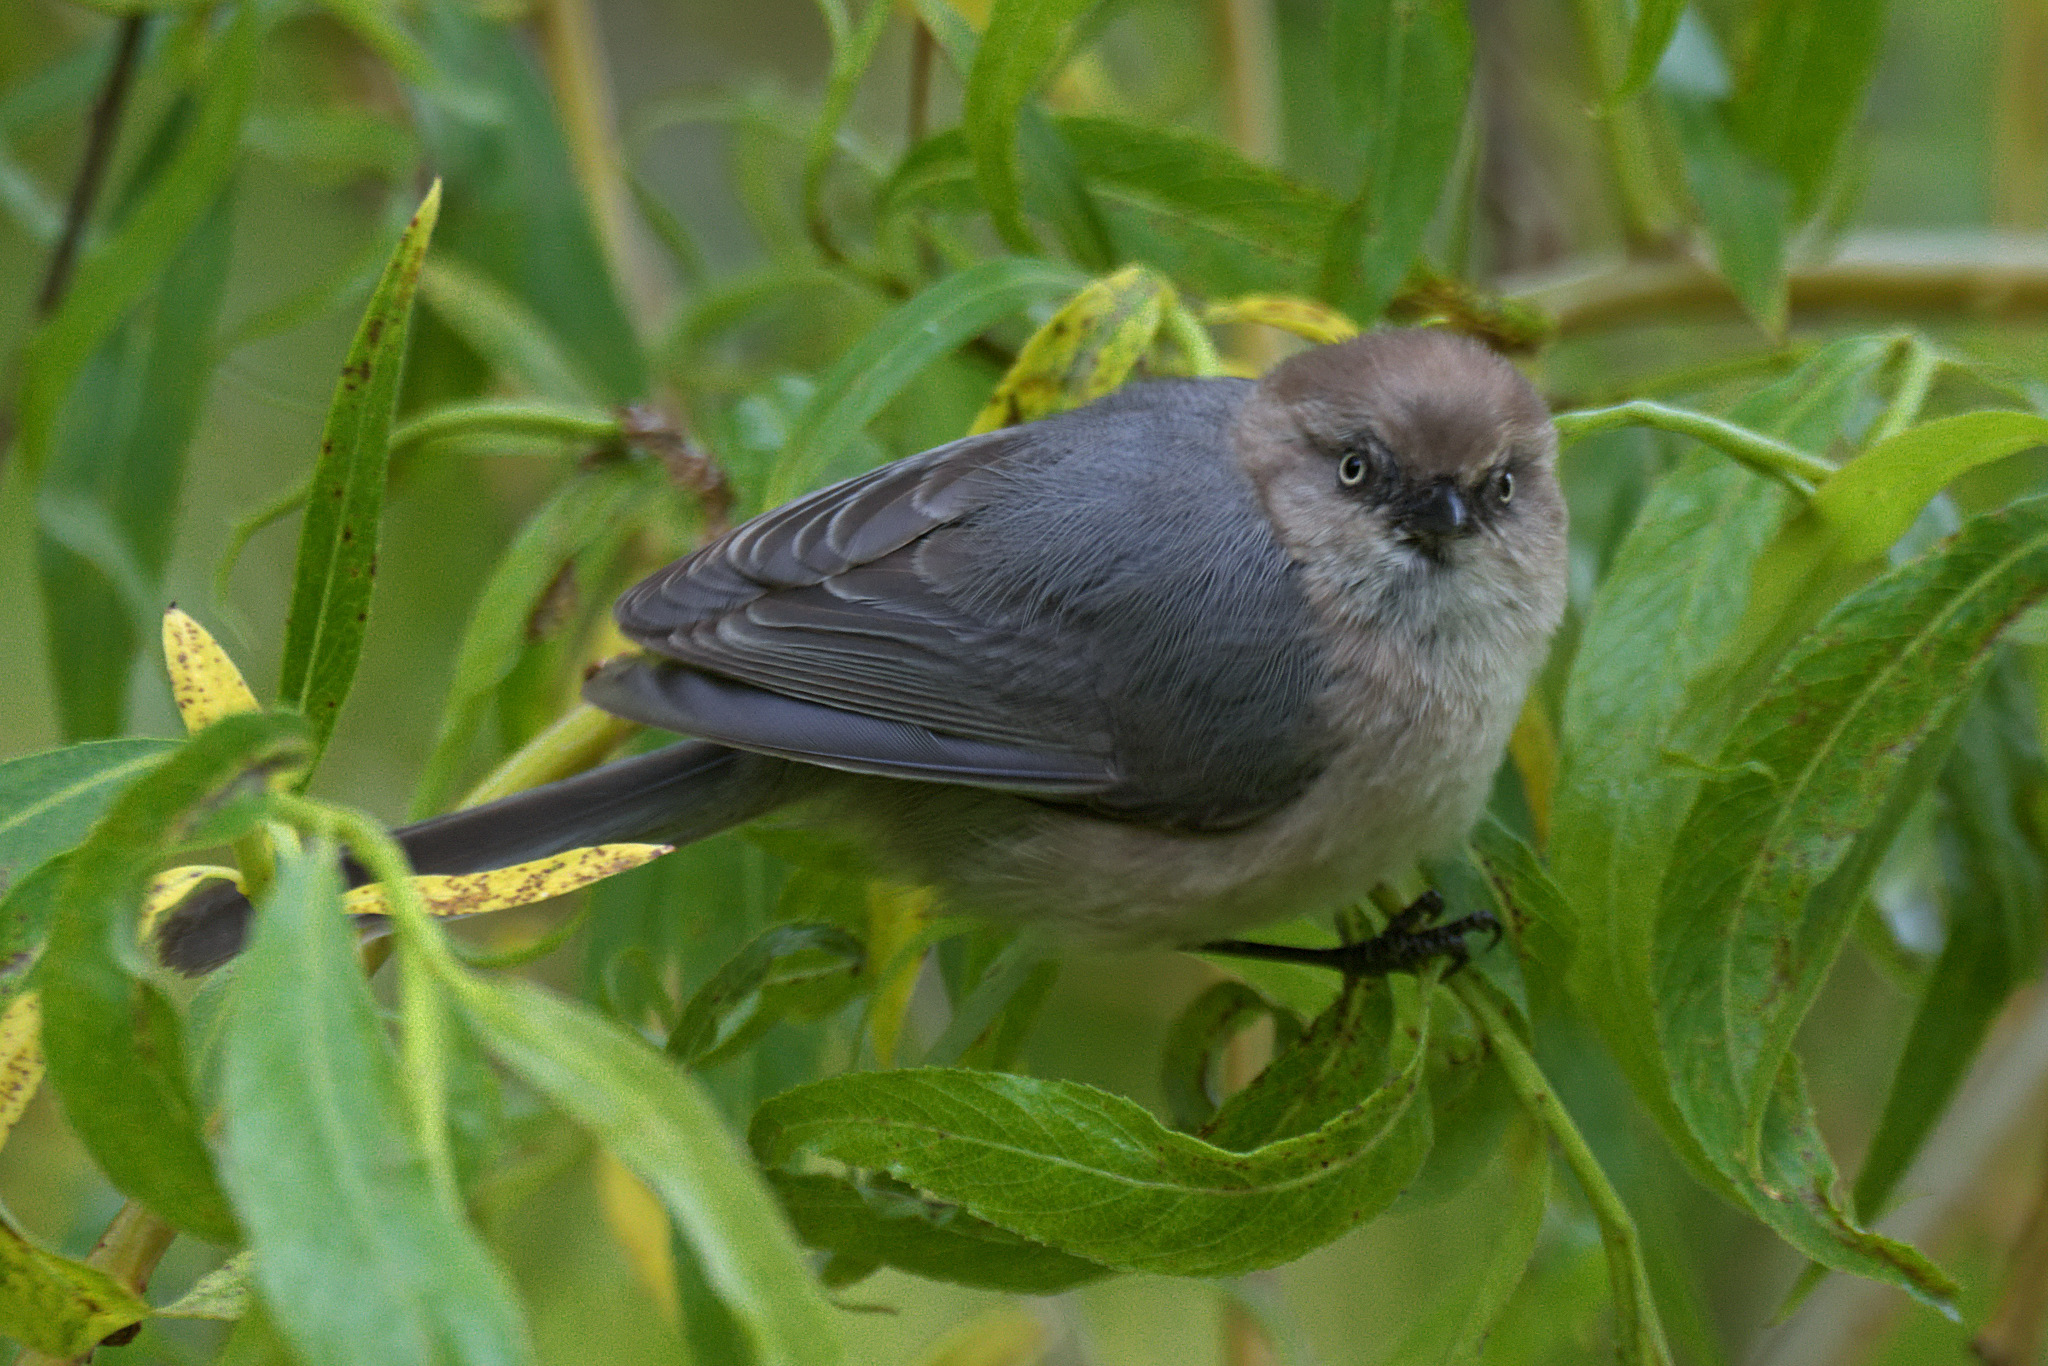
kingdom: Animalia
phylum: Chordata
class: Aves
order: Passeriformes
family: Aegithalidae
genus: Psaltriparus
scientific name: Psaltriparus minimus
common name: American bushtit
